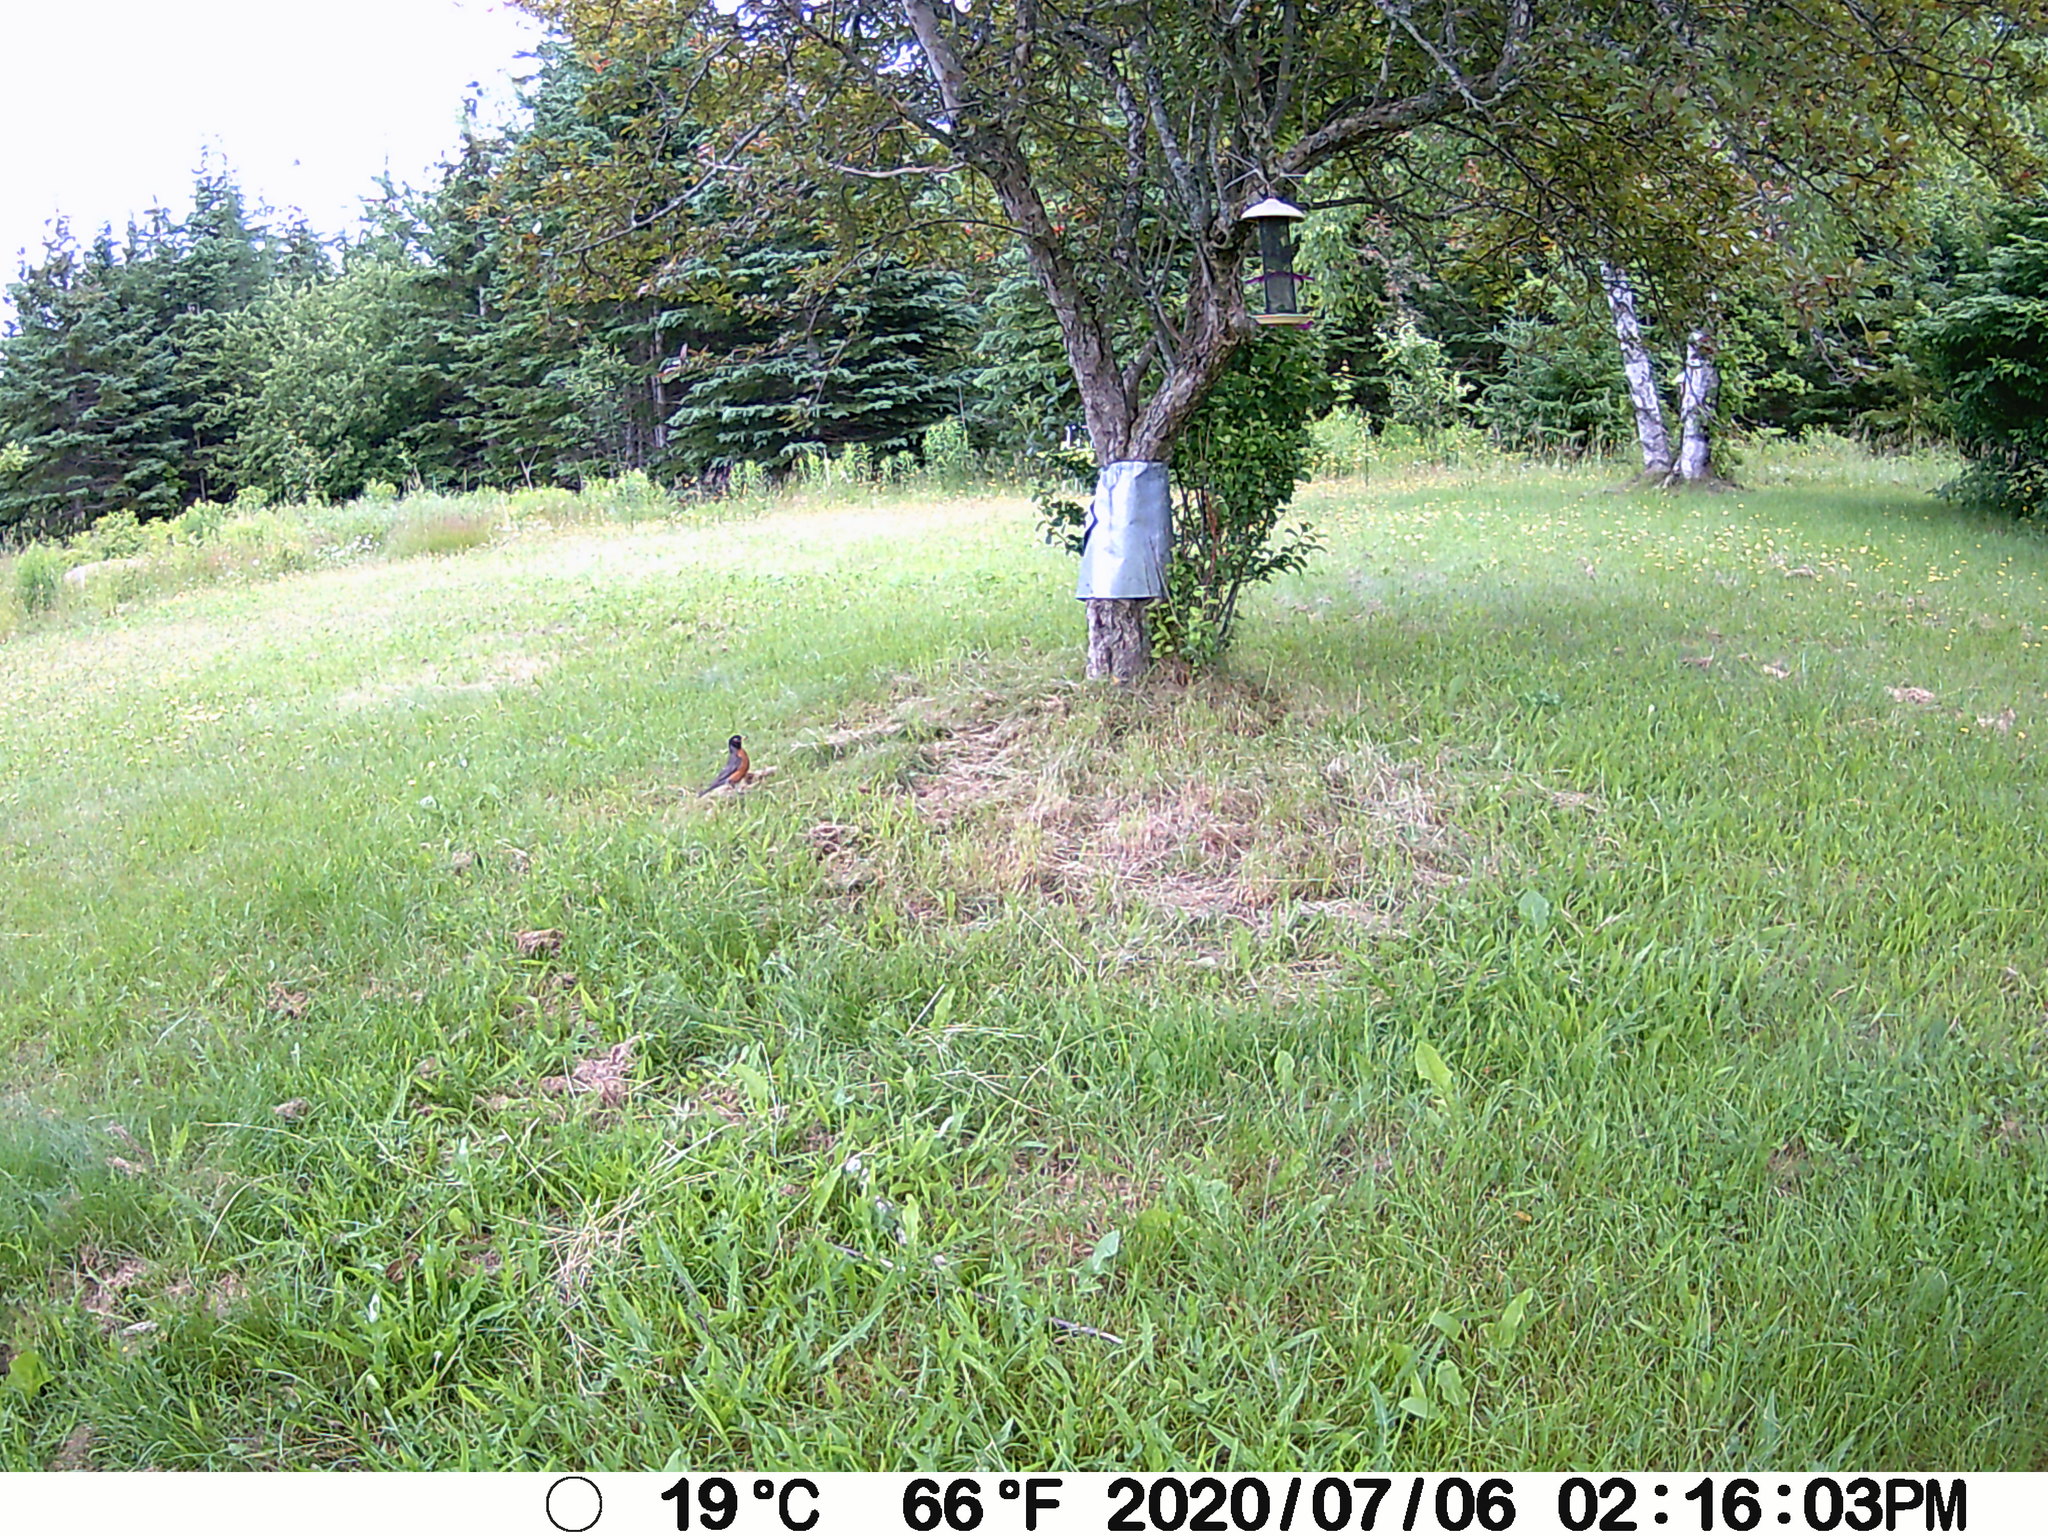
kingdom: Animalia
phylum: Chordata
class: Aves
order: Passeriformes
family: Turdidae
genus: Turdus
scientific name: Turdus migratorius
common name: American robin
